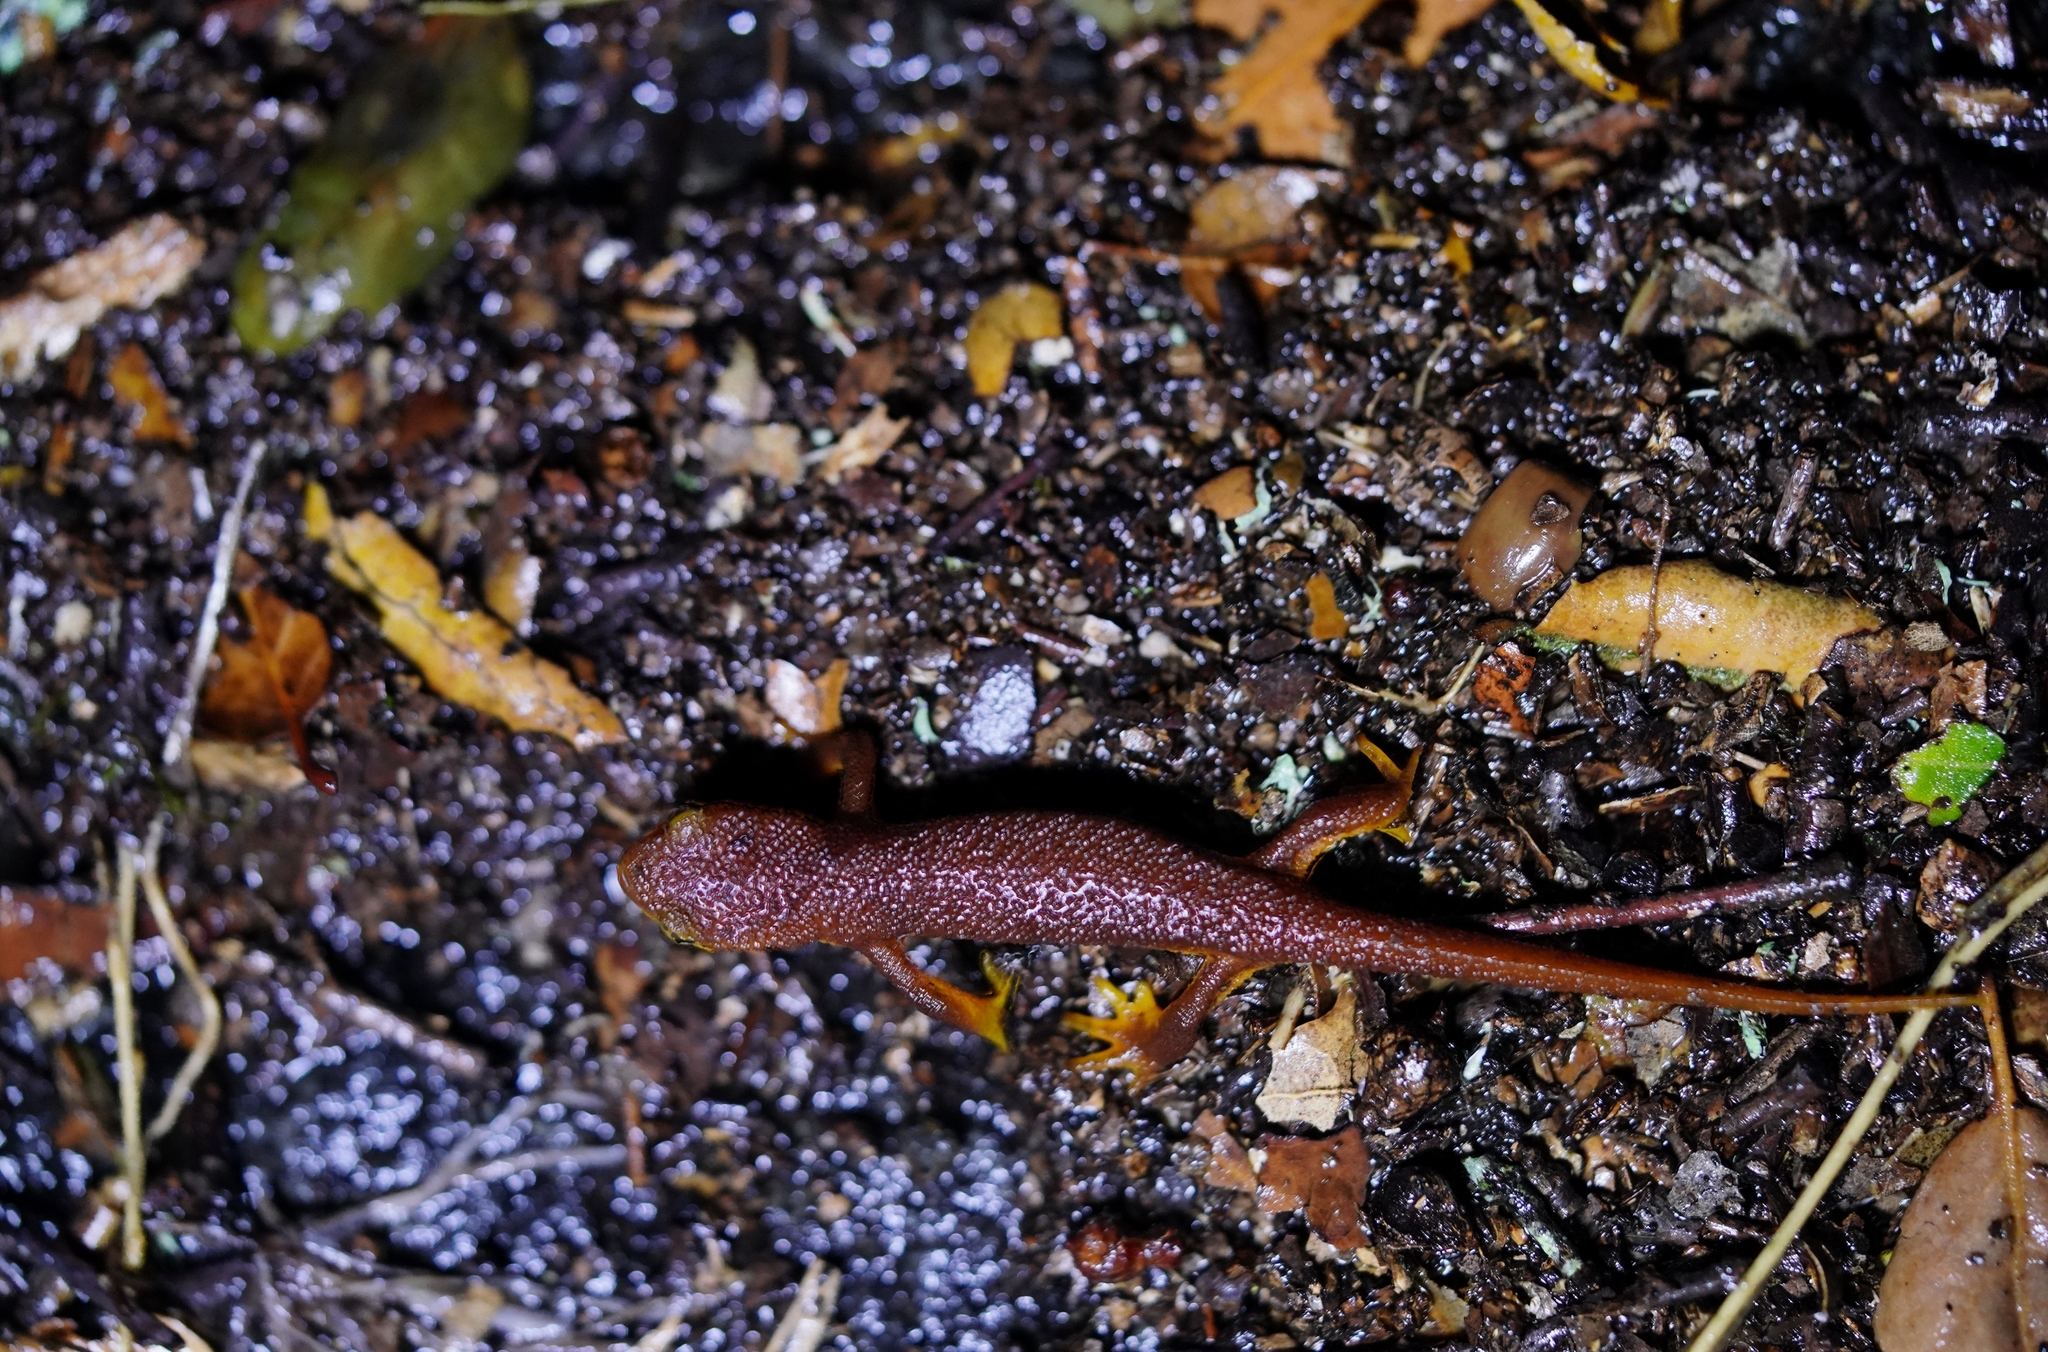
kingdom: Animalia
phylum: Chordata
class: Amphibia
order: Caudata
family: Salamandridae
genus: Taricha
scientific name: Taricha torosa
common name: California newt
